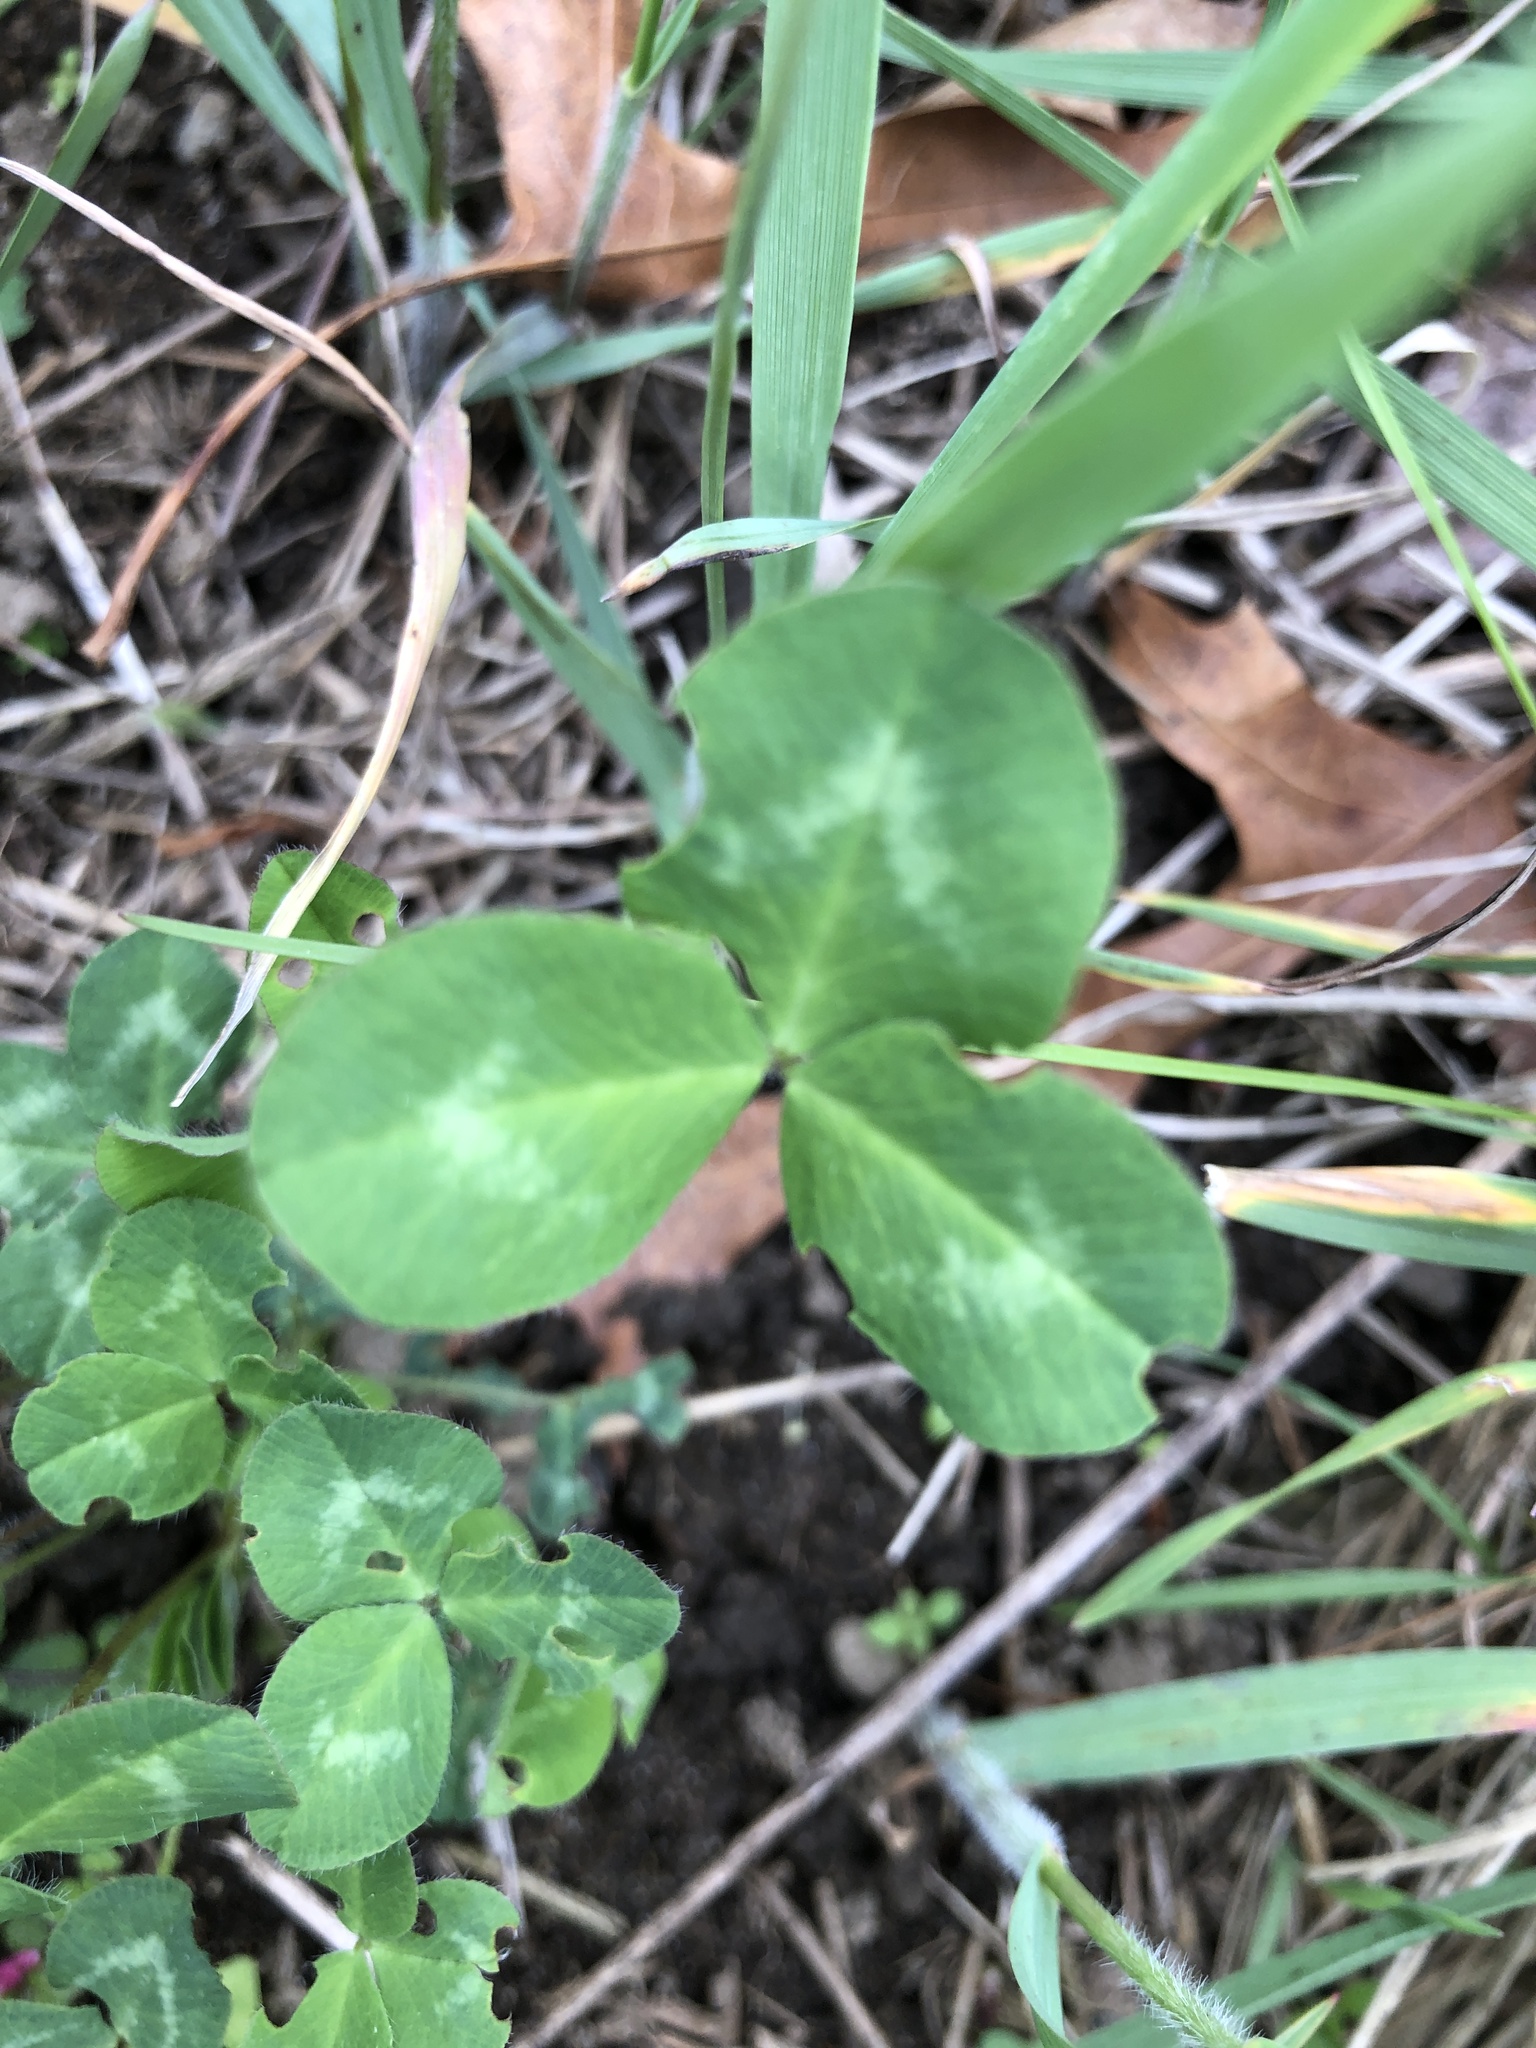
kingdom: Plantae
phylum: Tracheophyta
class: Magnoliopsida
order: Fabales
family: Fabaceae
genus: Trifolium
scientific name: Trifolium pratense
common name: Red clover
